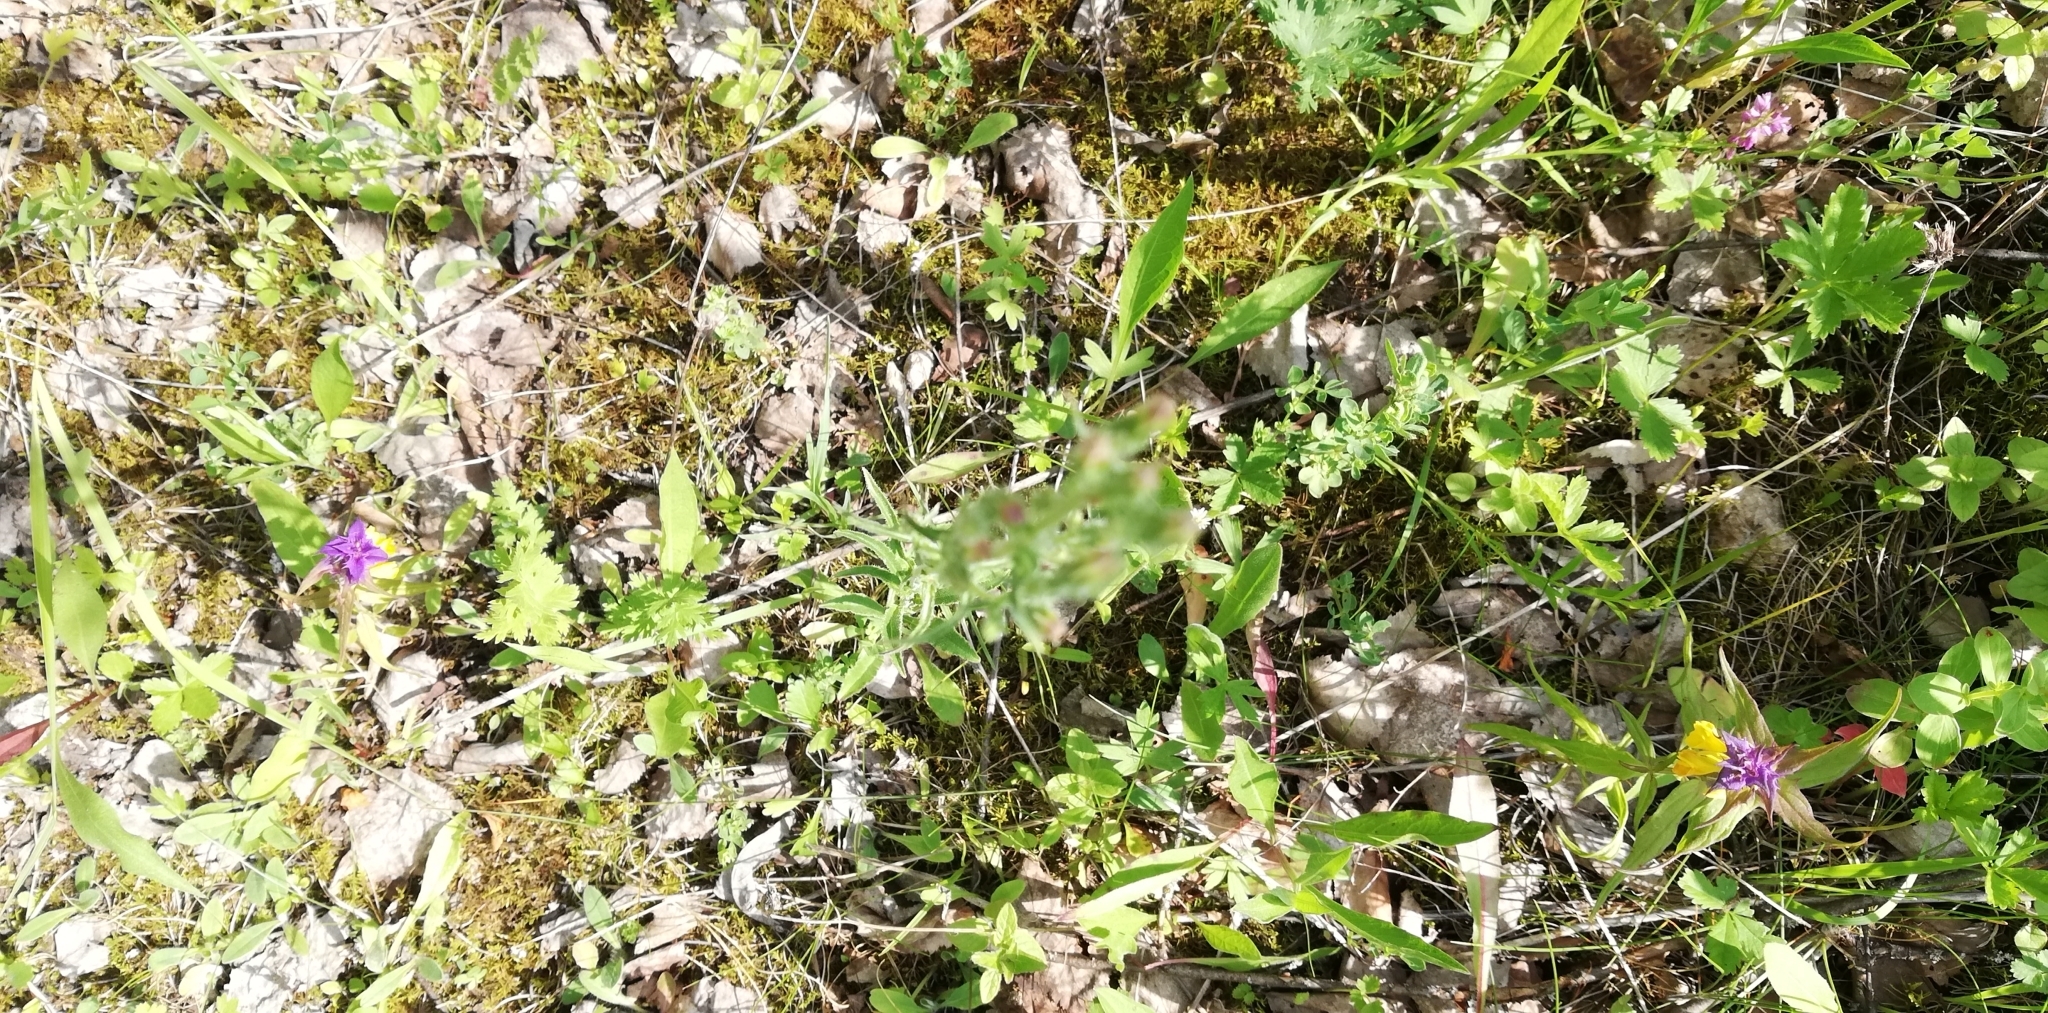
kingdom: Plantae
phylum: Tracheophyta
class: Magnoliopsida
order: Asterales
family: Campanulaceae
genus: Campanula
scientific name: Campanula sibirica
